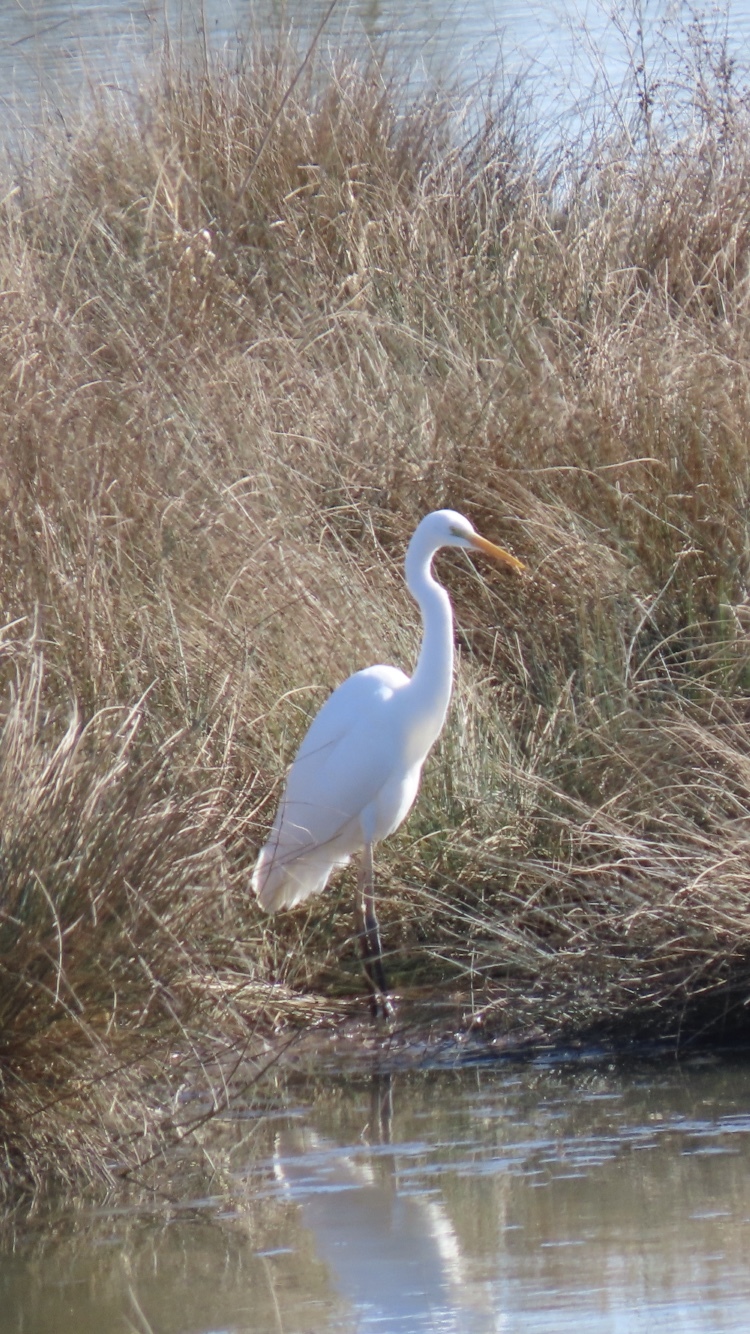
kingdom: Animalia
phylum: Chordata
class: Aves
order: Pelecaniformes
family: Ardeidae
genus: Ardea
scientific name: Ardea alba
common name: Great egret
